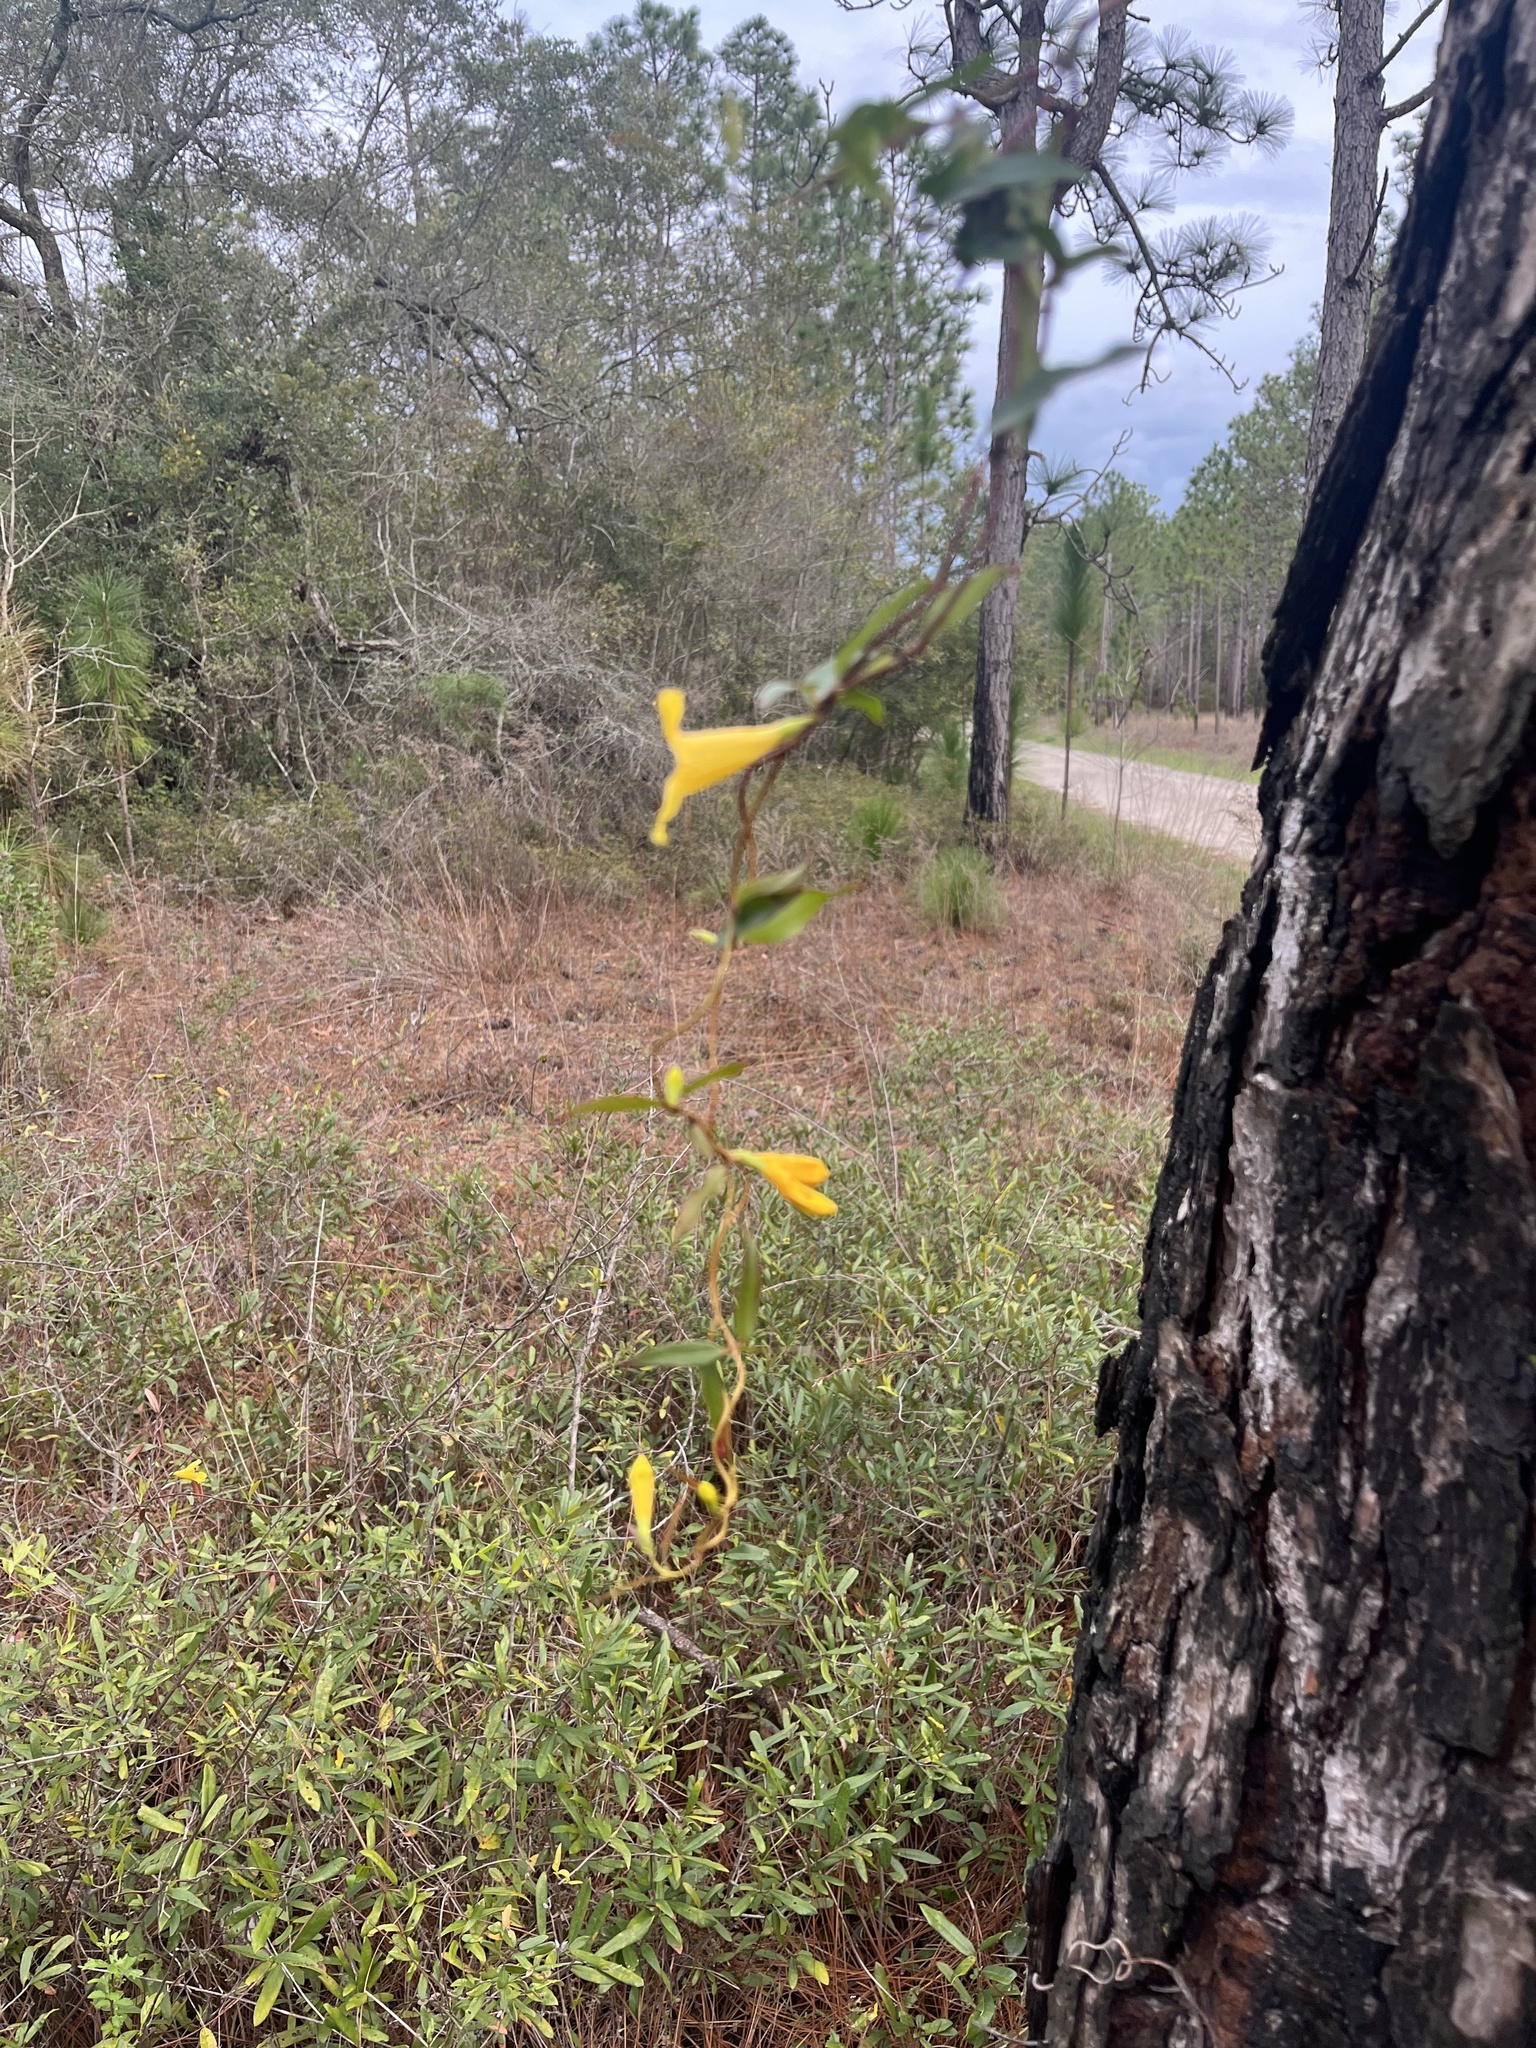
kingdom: Plantae
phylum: Tracheophyta
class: Magnoliopsida
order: Gentianales
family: Gelsemiaceae
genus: Gelsemium
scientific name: Gelsemium sempervirens
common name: Carolina-jasmine
